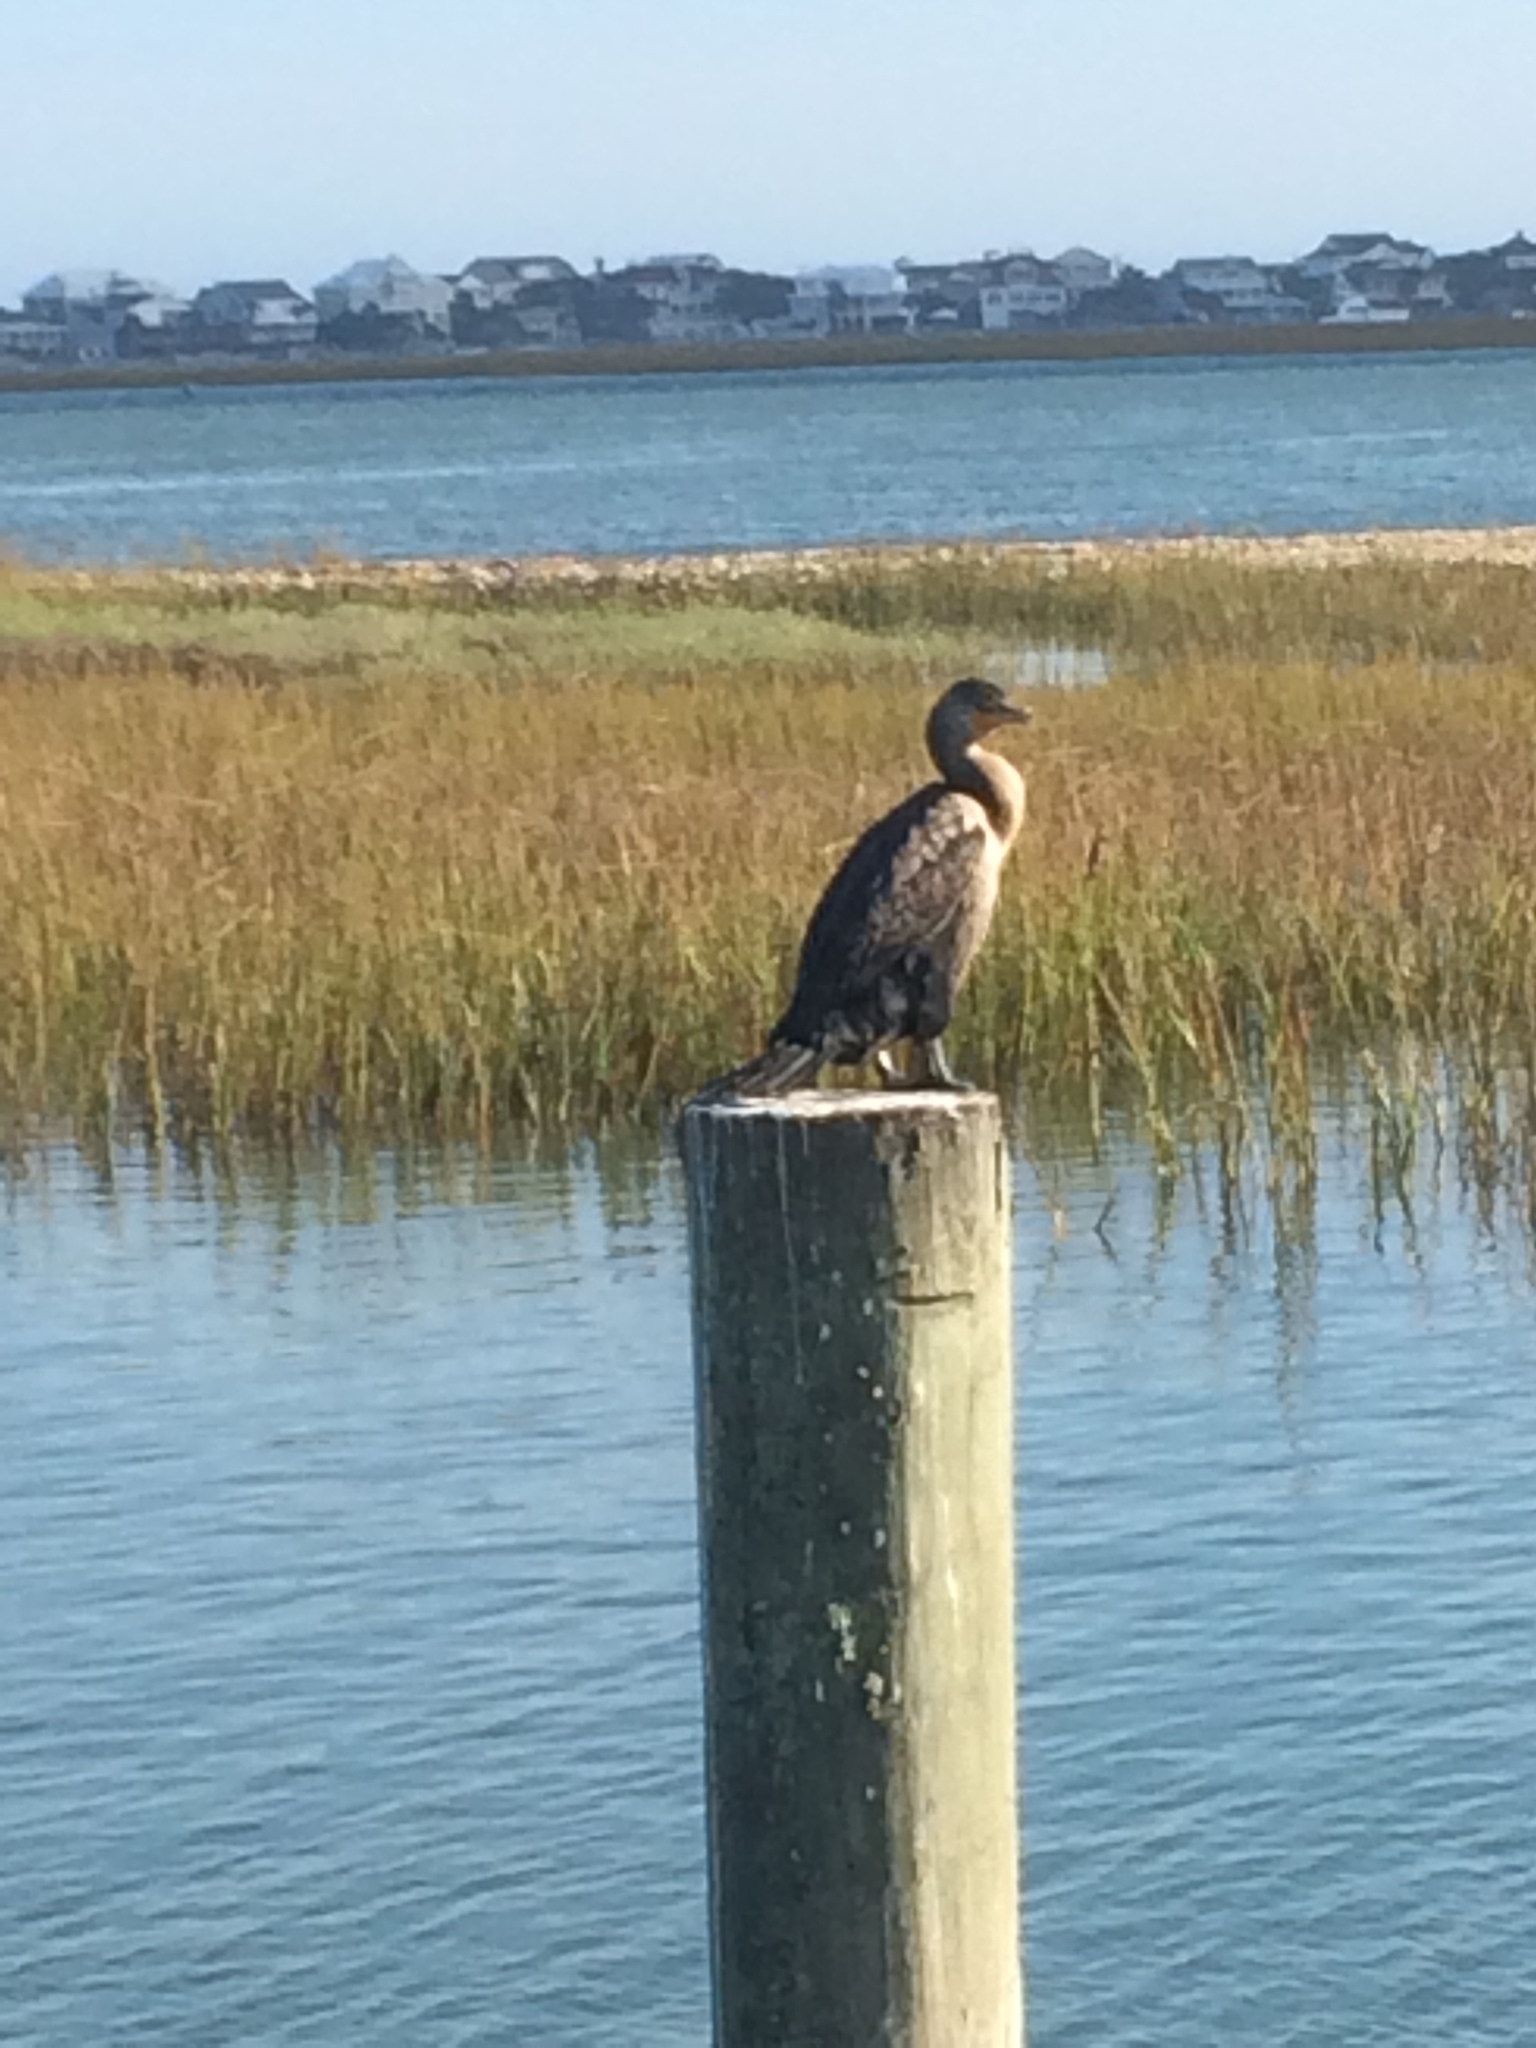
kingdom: Animalia
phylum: Chordata
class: Aves
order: Suliformes
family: Phalacrocoracidae
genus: Phalacrocorax
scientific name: Phalacrocorax auritus
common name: Double-crested cormorant
